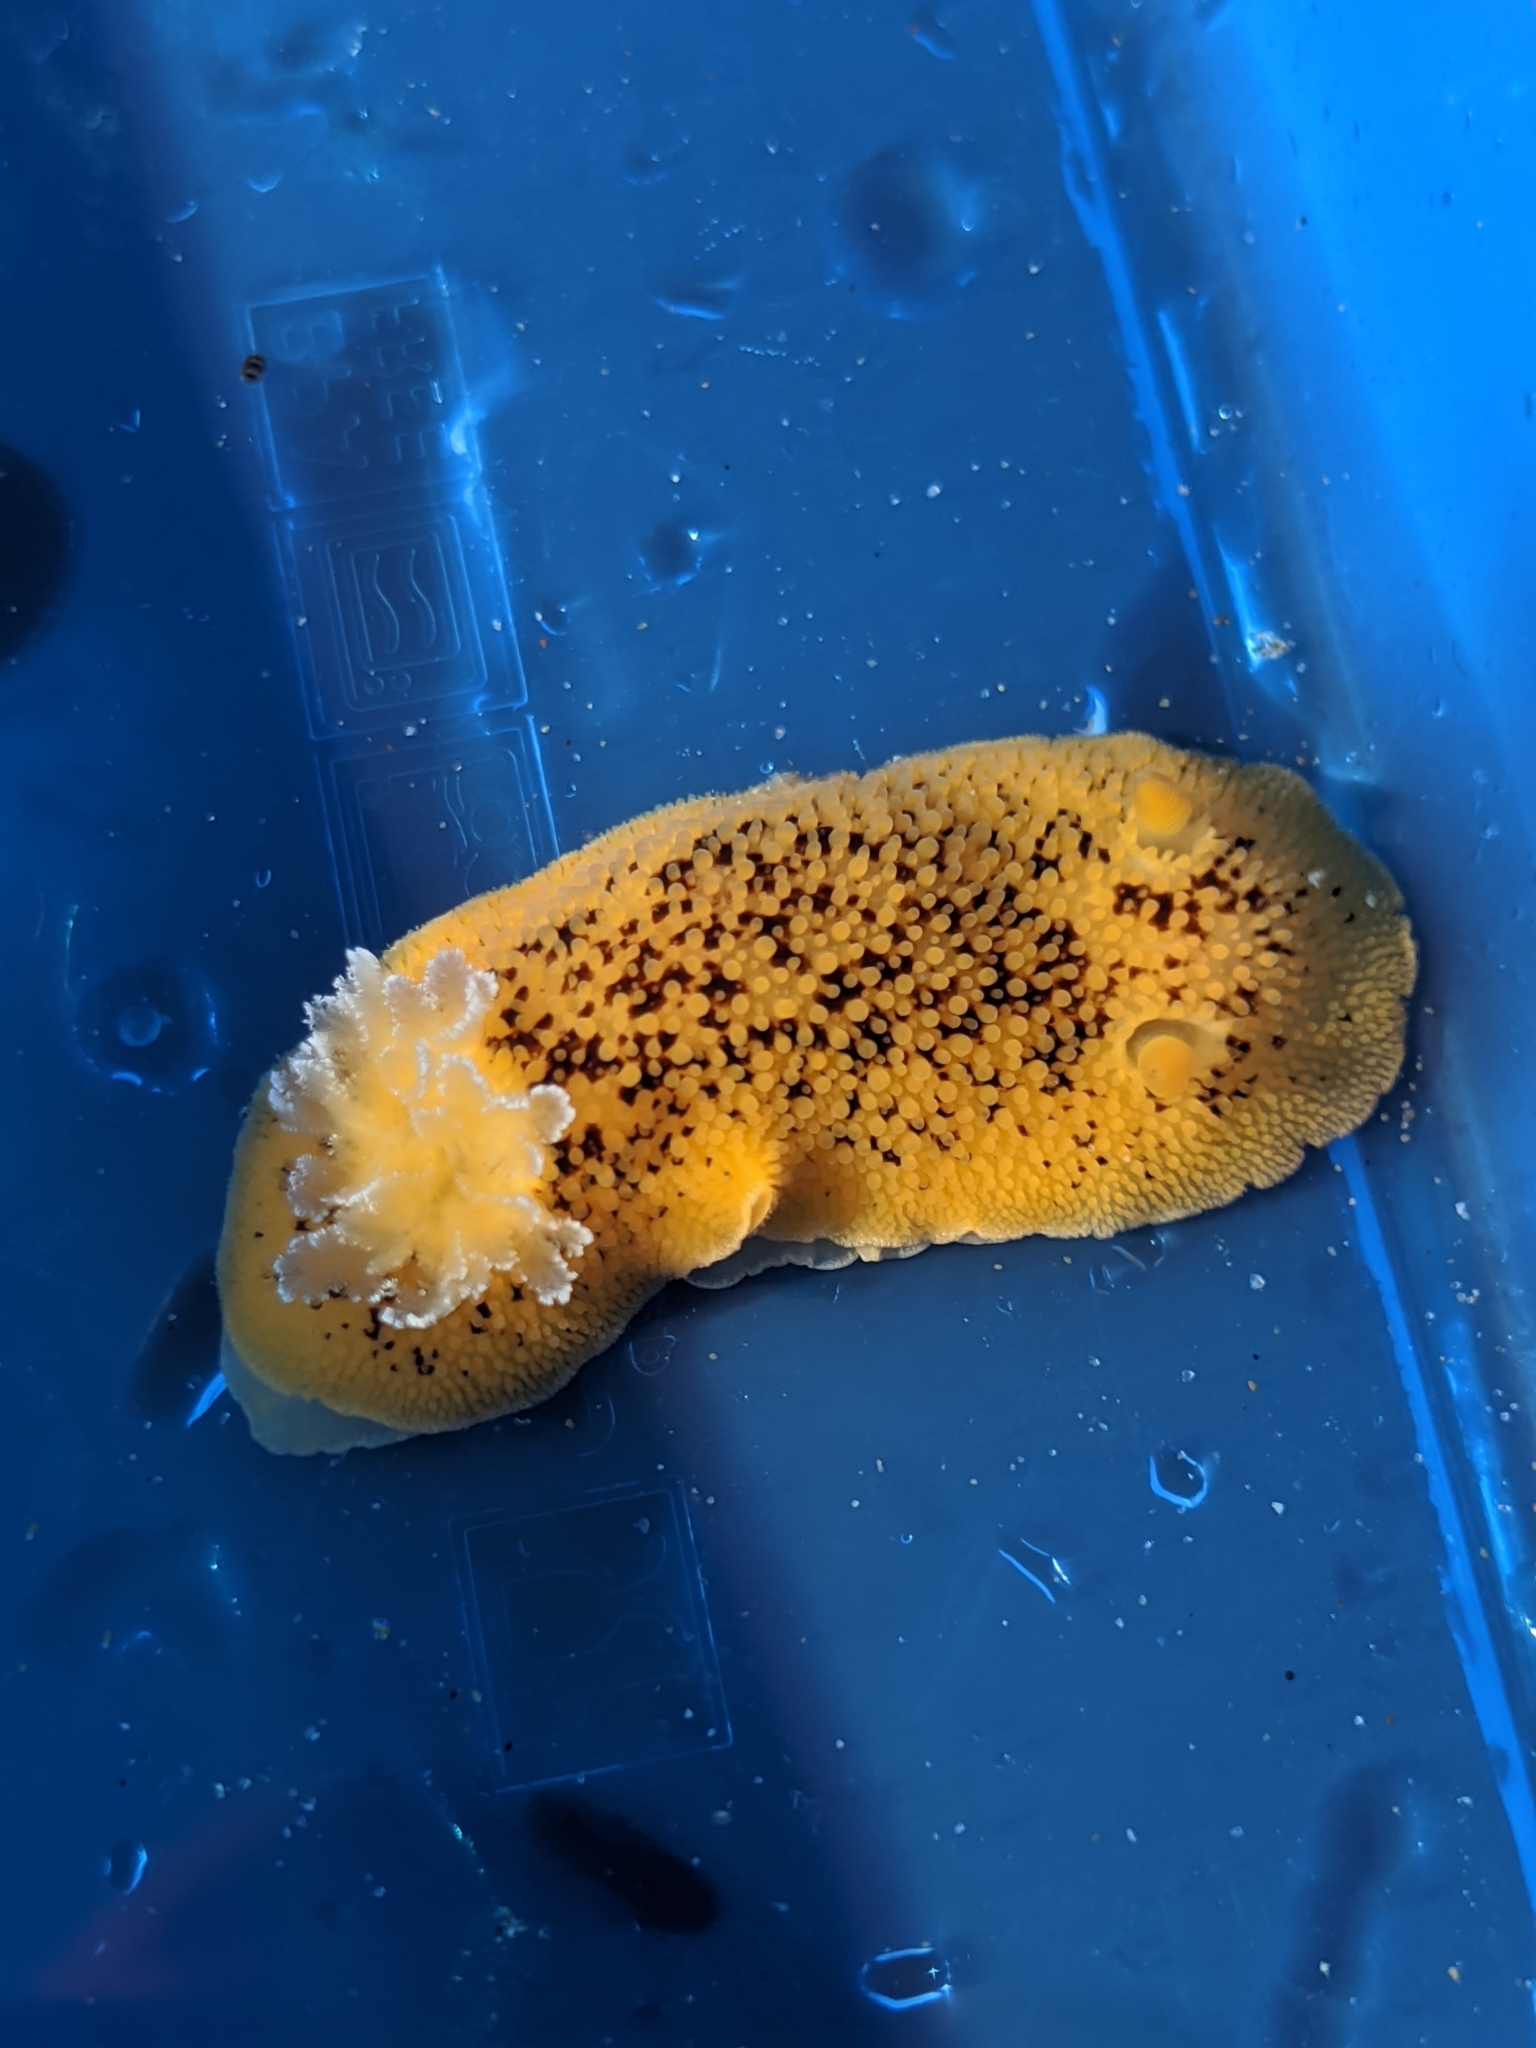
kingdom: Animalia
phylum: Mollusca
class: Gastropoda
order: Nudibranchia
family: Discodorididae
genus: Peltodoris
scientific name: Peltodoris nobilis
